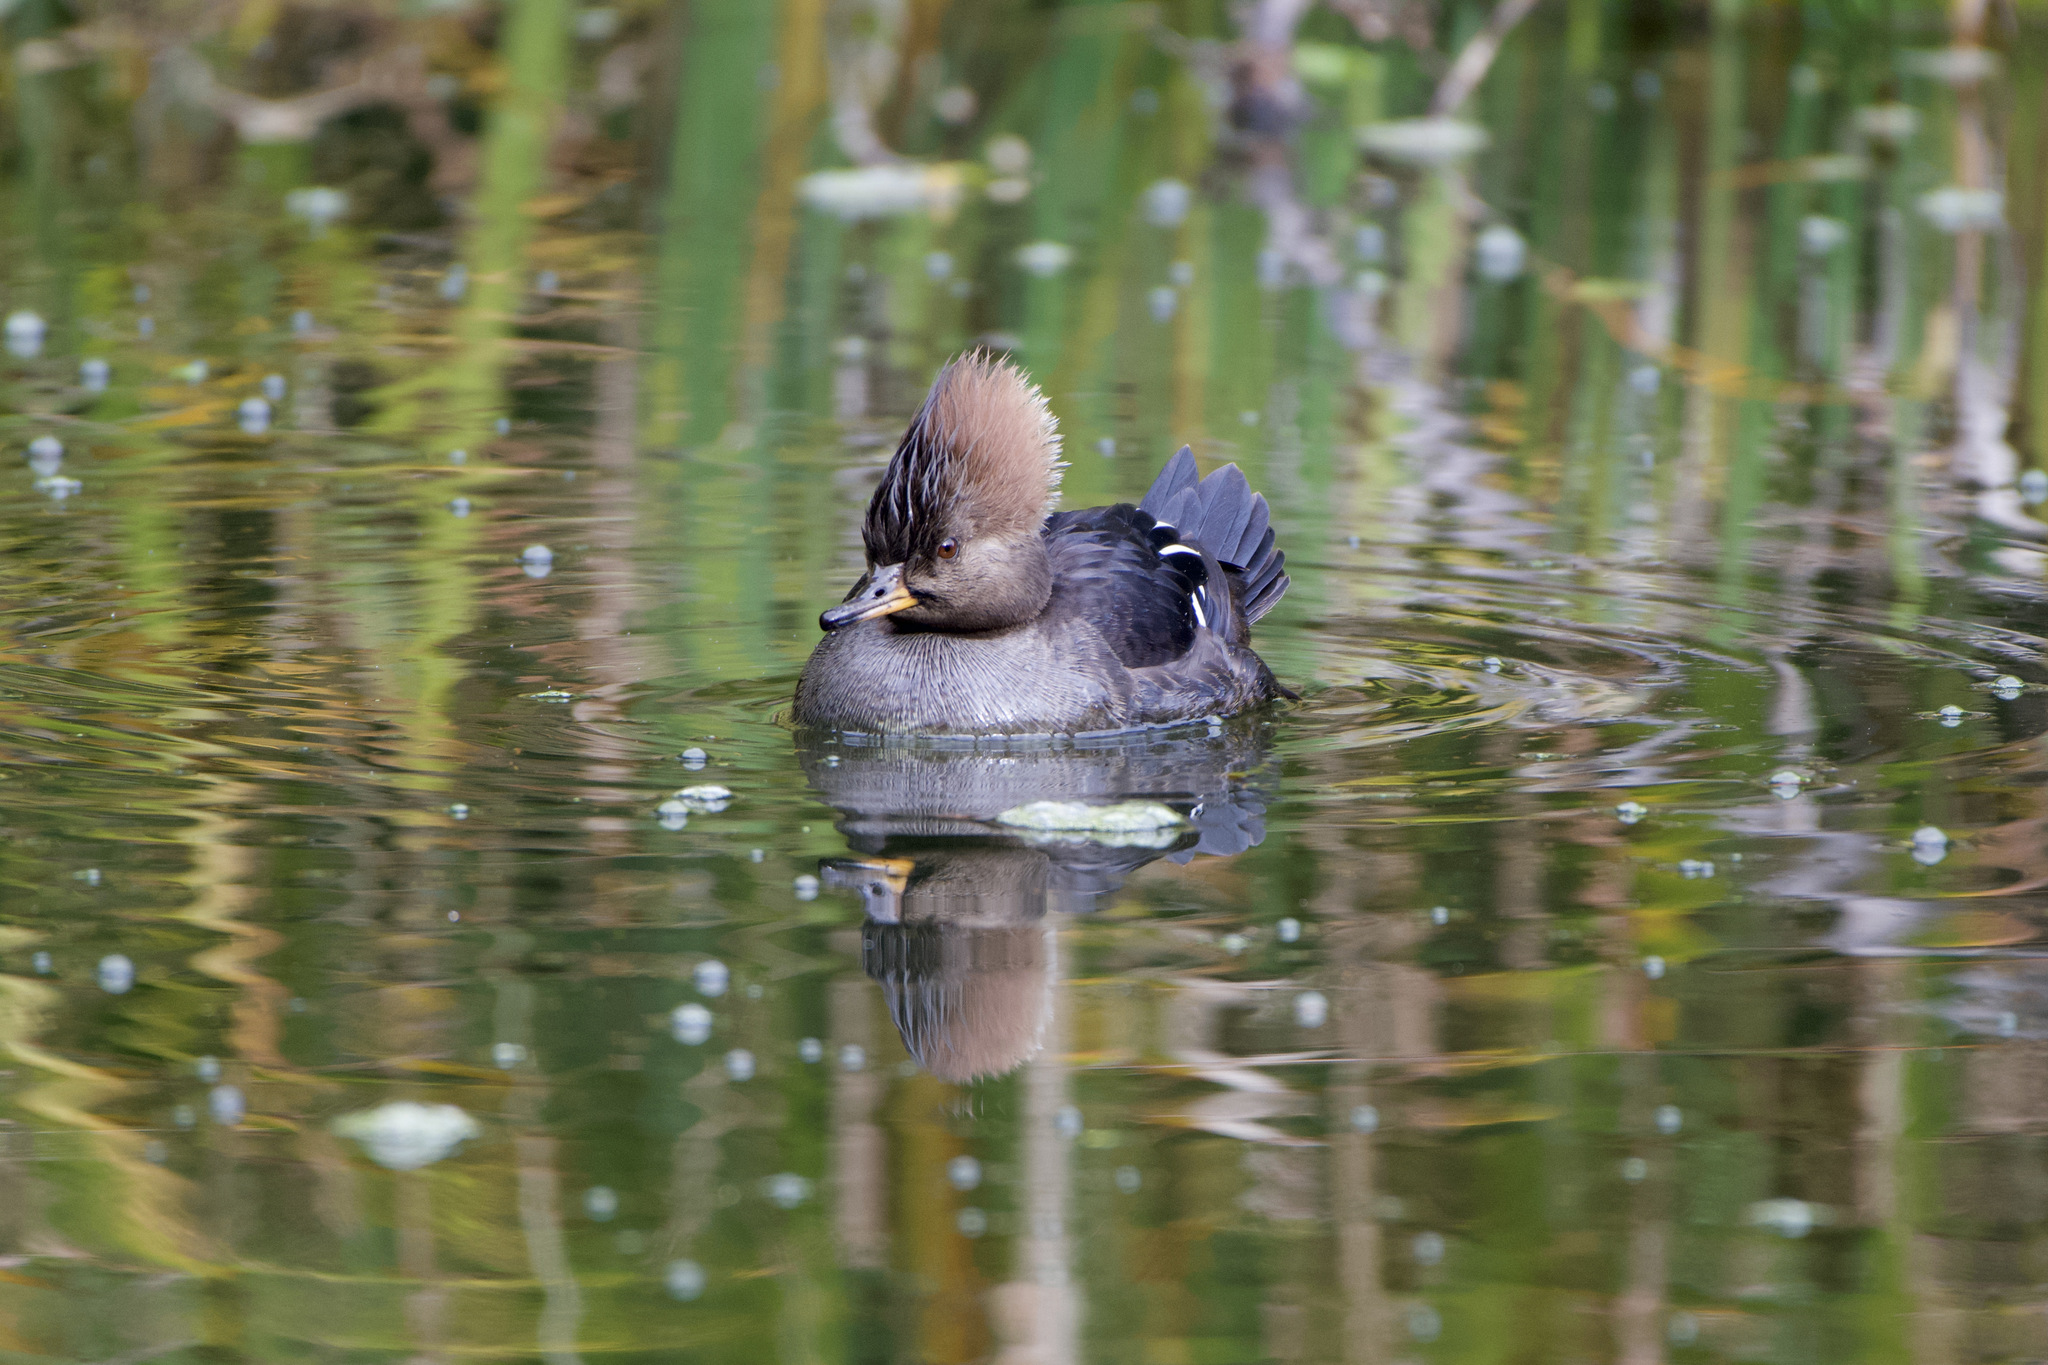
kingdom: Animalia
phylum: Chordata
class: Aves
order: Anseriformes
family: Anatidae
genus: Lophodytes
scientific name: Lophodytes cucullatus
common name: Hooded merganser
